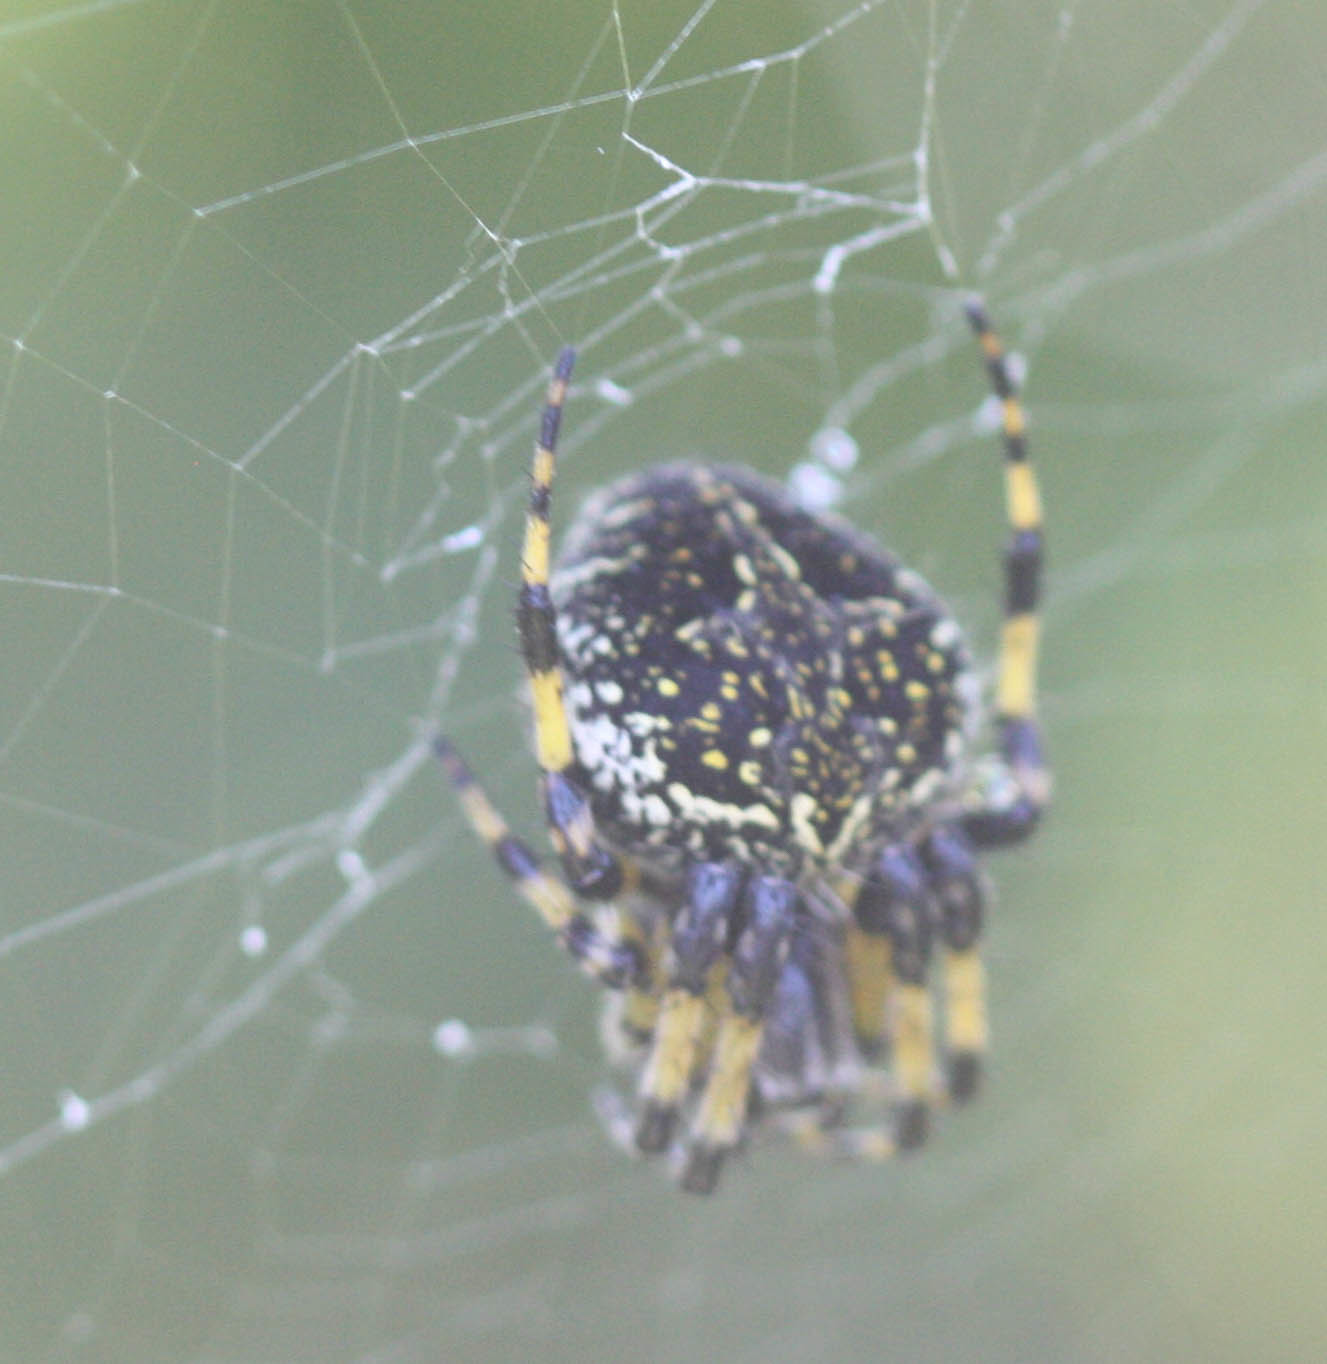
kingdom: Animalia
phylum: Arthropoda
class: Arachnida
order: Araneae
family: Araneidae
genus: Neoscona
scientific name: Neoscona orizabensis
